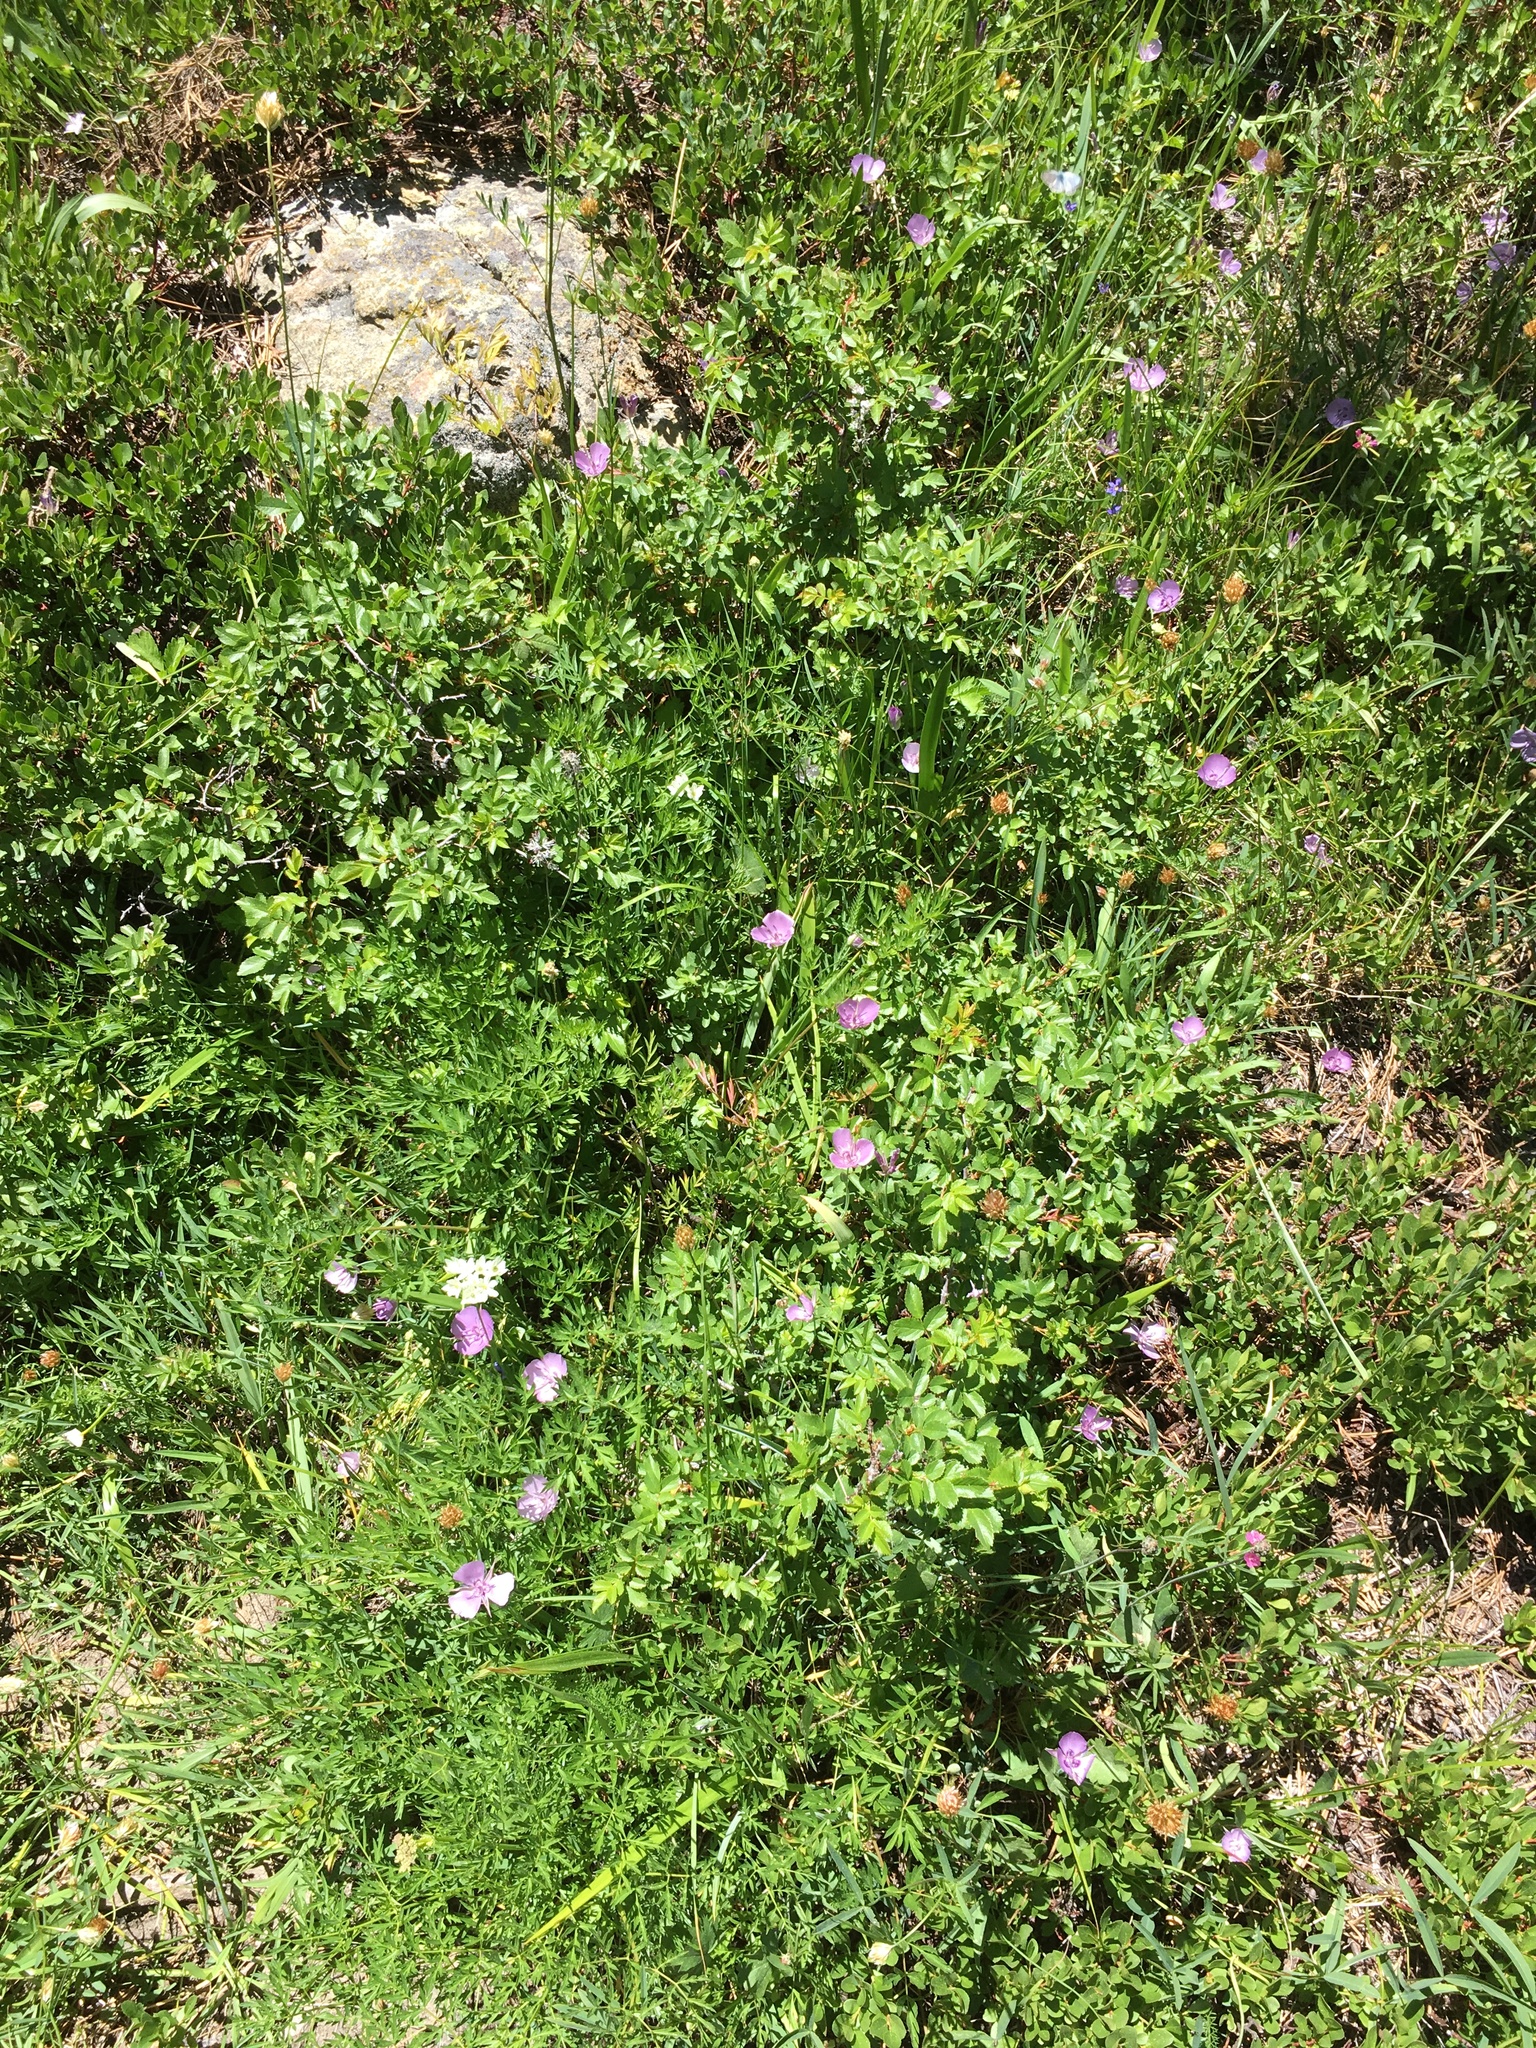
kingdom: Plantae
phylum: Tracheophyta
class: Liliopsida
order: Liliales
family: Liliaceae
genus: Calochortus
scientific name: Calochortus nudus
